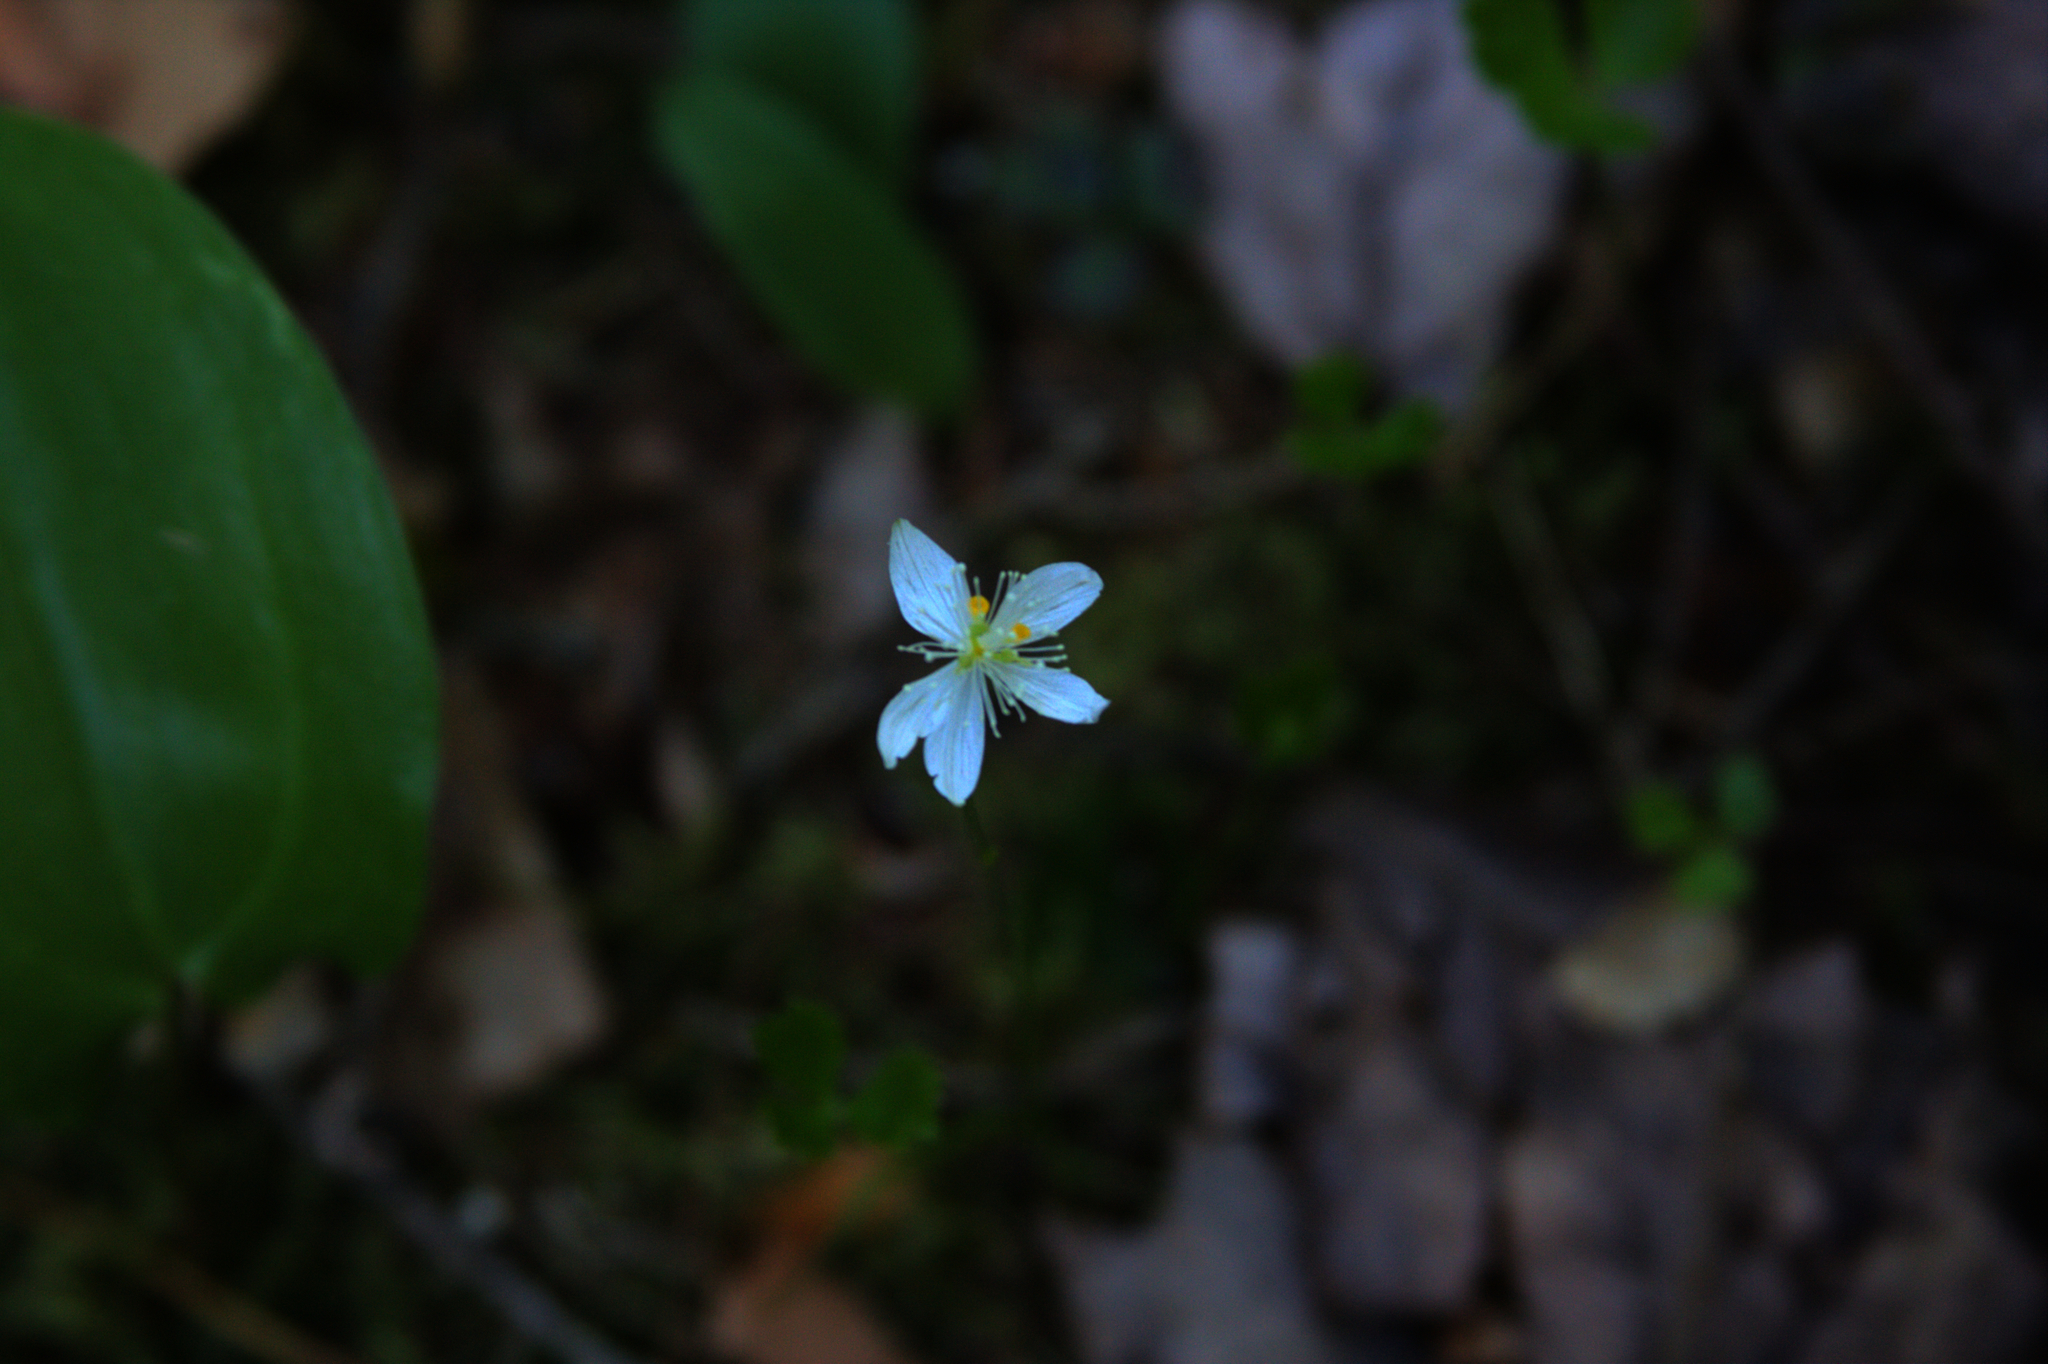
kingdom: Plantae
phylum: Tracheophyta
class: Magnoliopsida
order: Ranunculales
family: Ranunculaceae
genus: Coptis
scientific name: Coptis trifolia
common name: Canker-root
